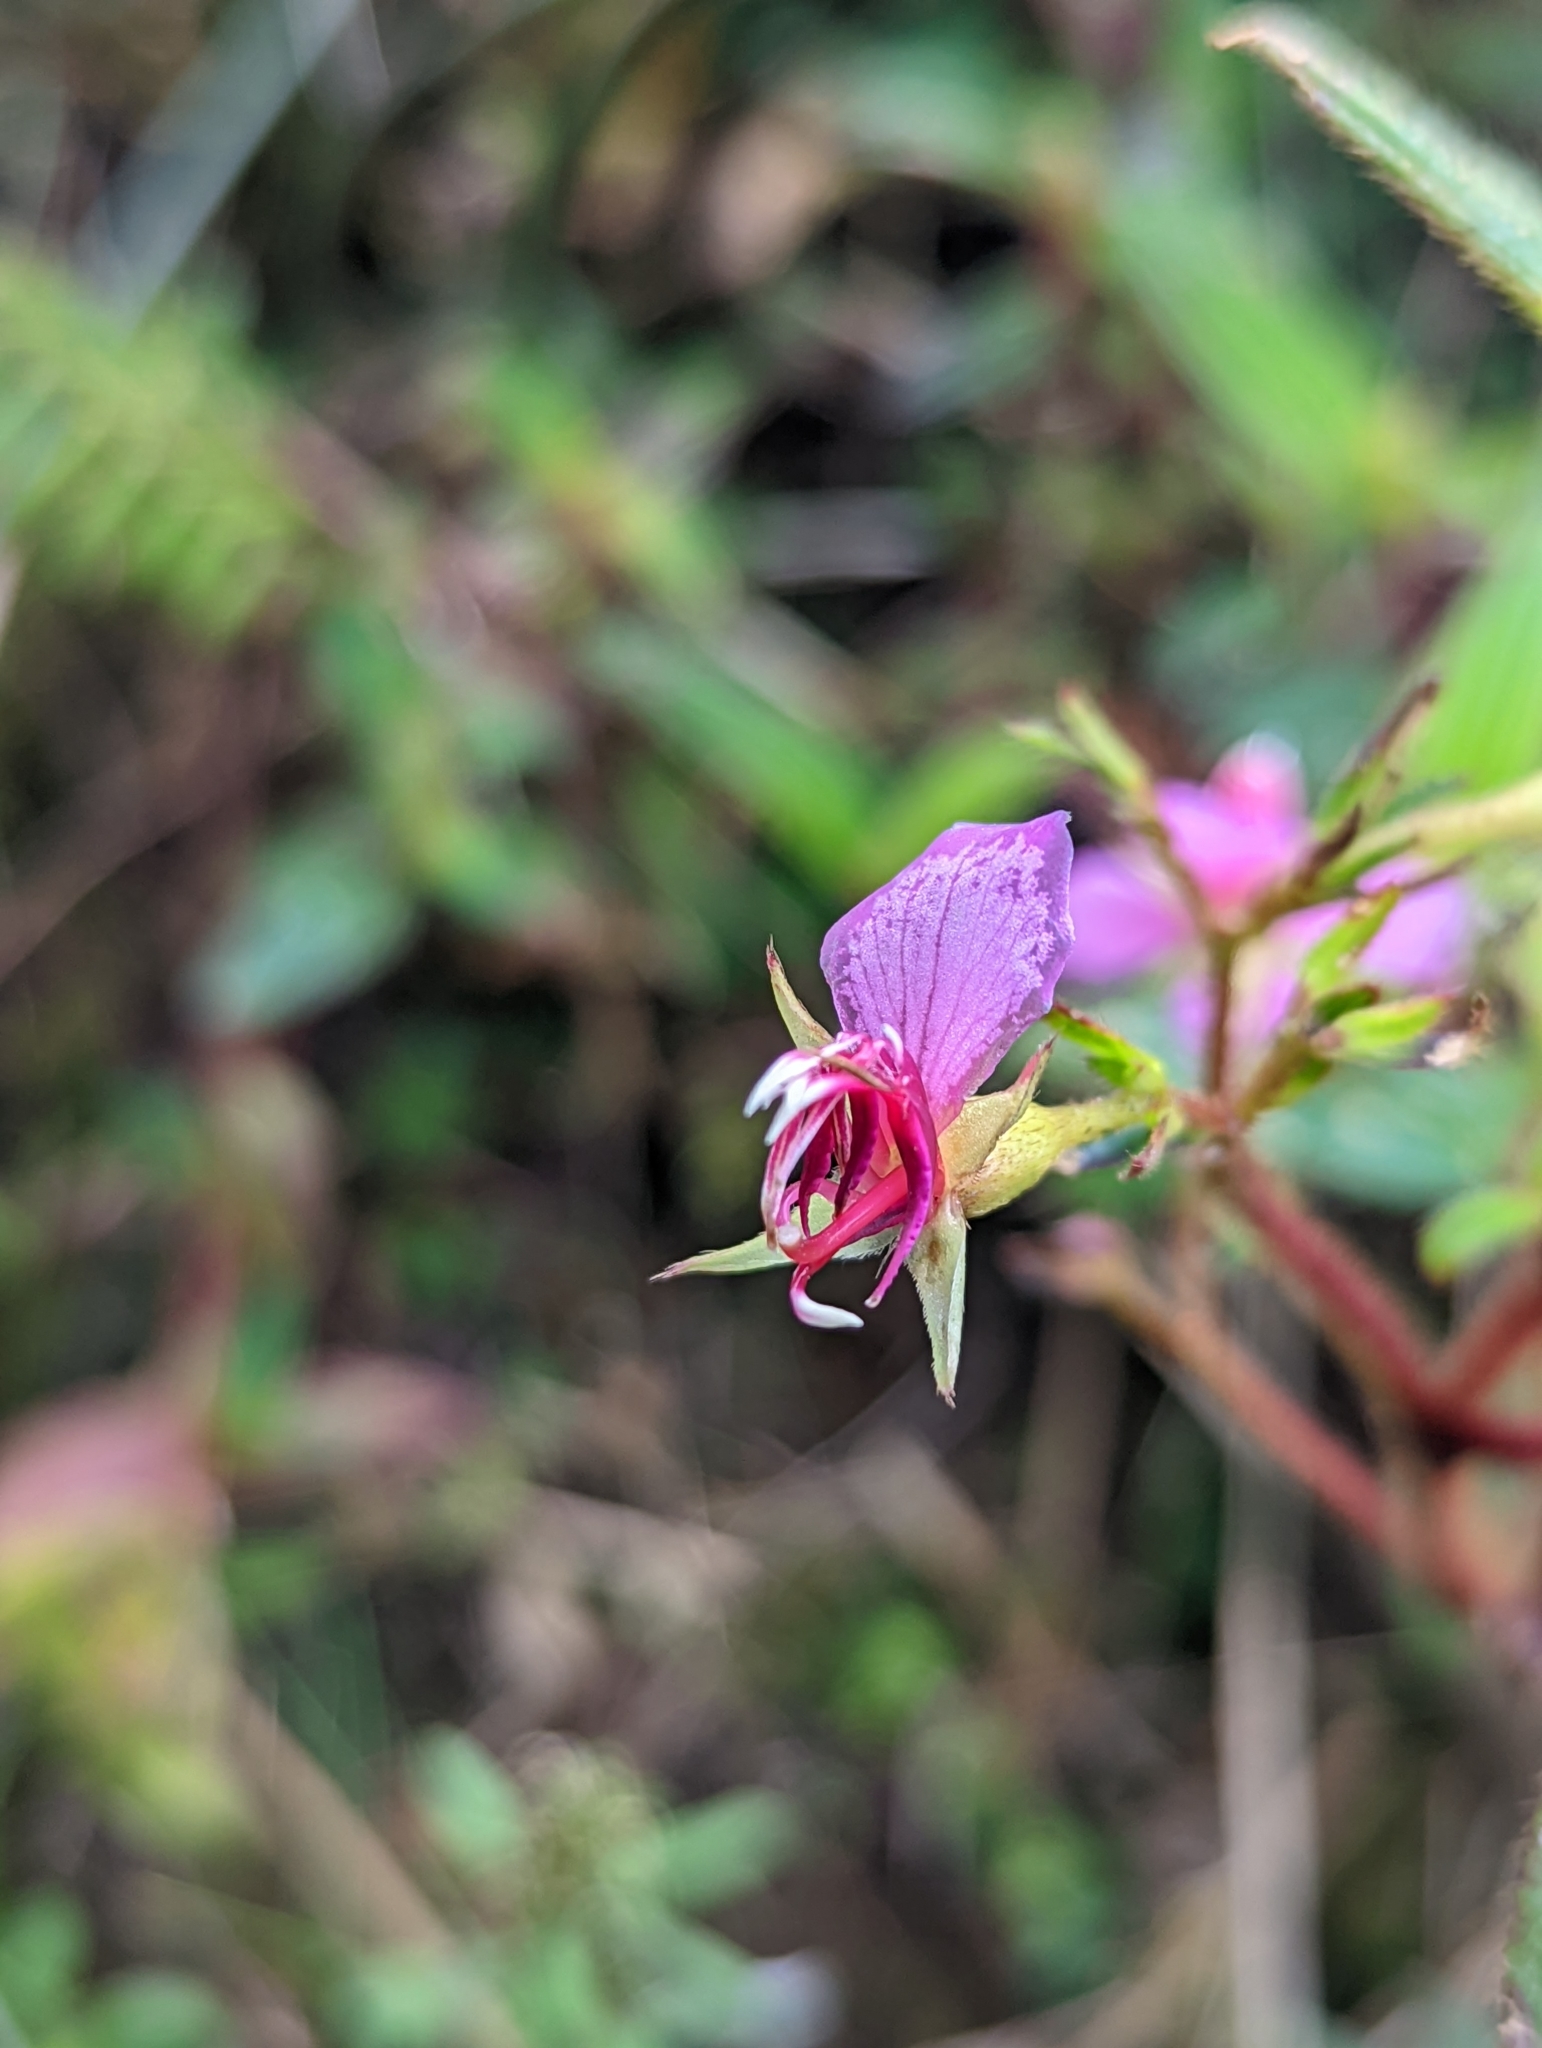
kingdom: Plantae
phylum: Tracheophyta
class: Magnoliopsida
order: Myrtales
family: Melastomataceae
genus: Monochaetum
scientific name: Monochaetum hartwegianum
